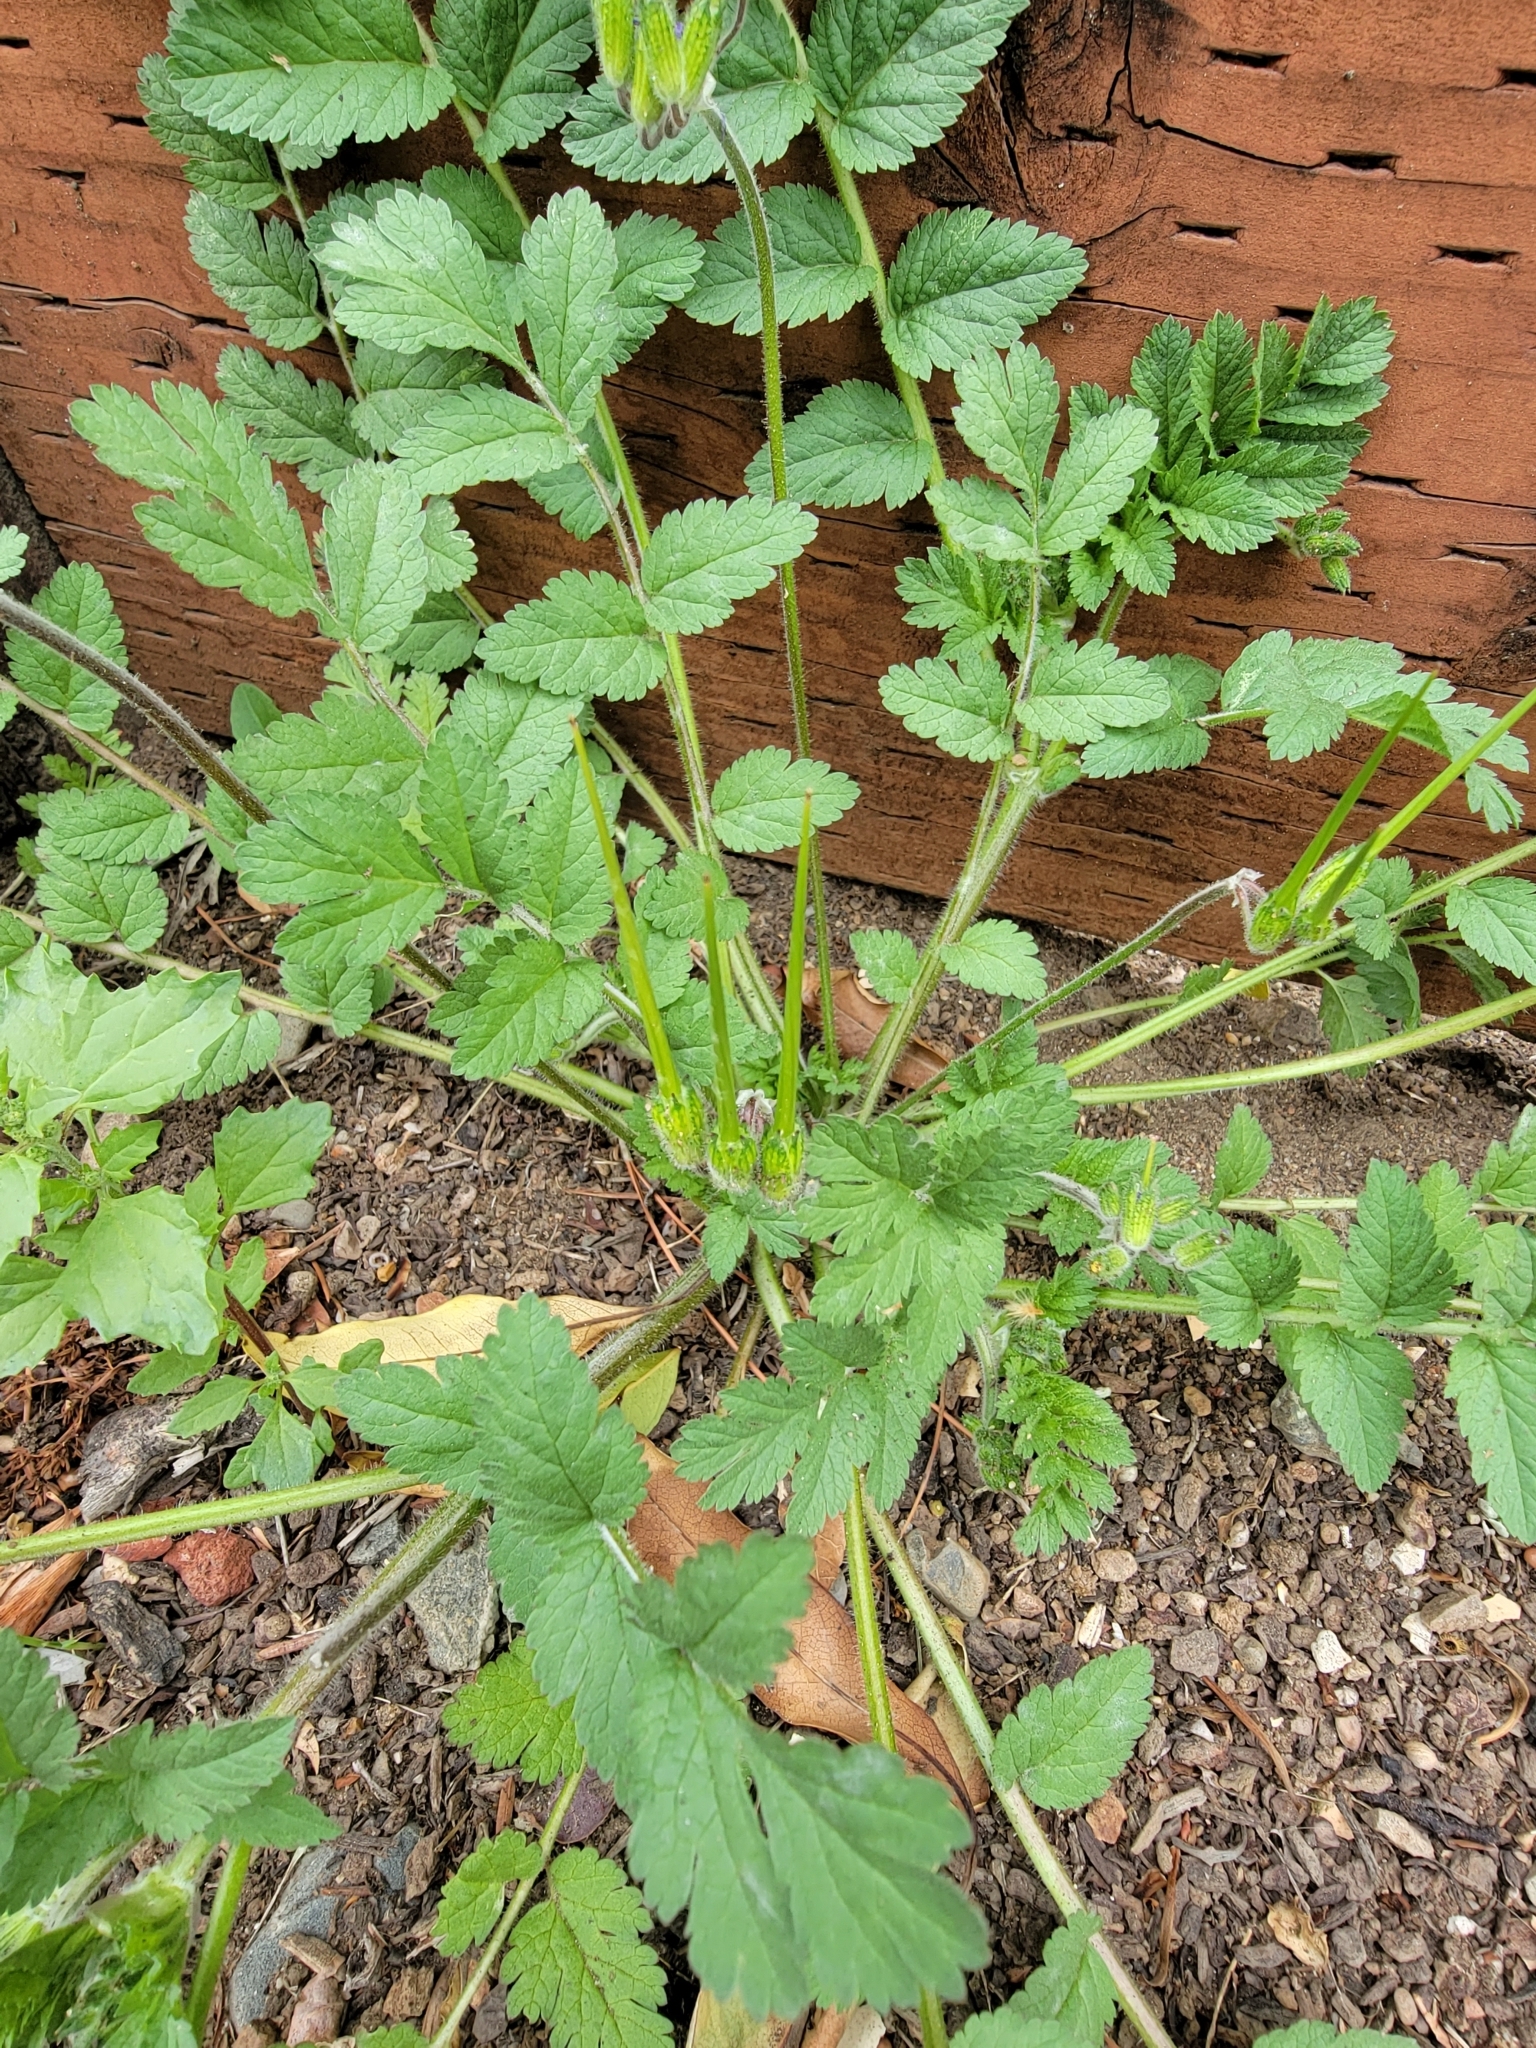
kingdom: Plantae
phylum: Tracheophyta
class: Magnoliopsida
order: Geraniales
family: Geraniaceae
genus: Erodium
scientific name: Erodium moschatum
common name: Musk stork's-bill
